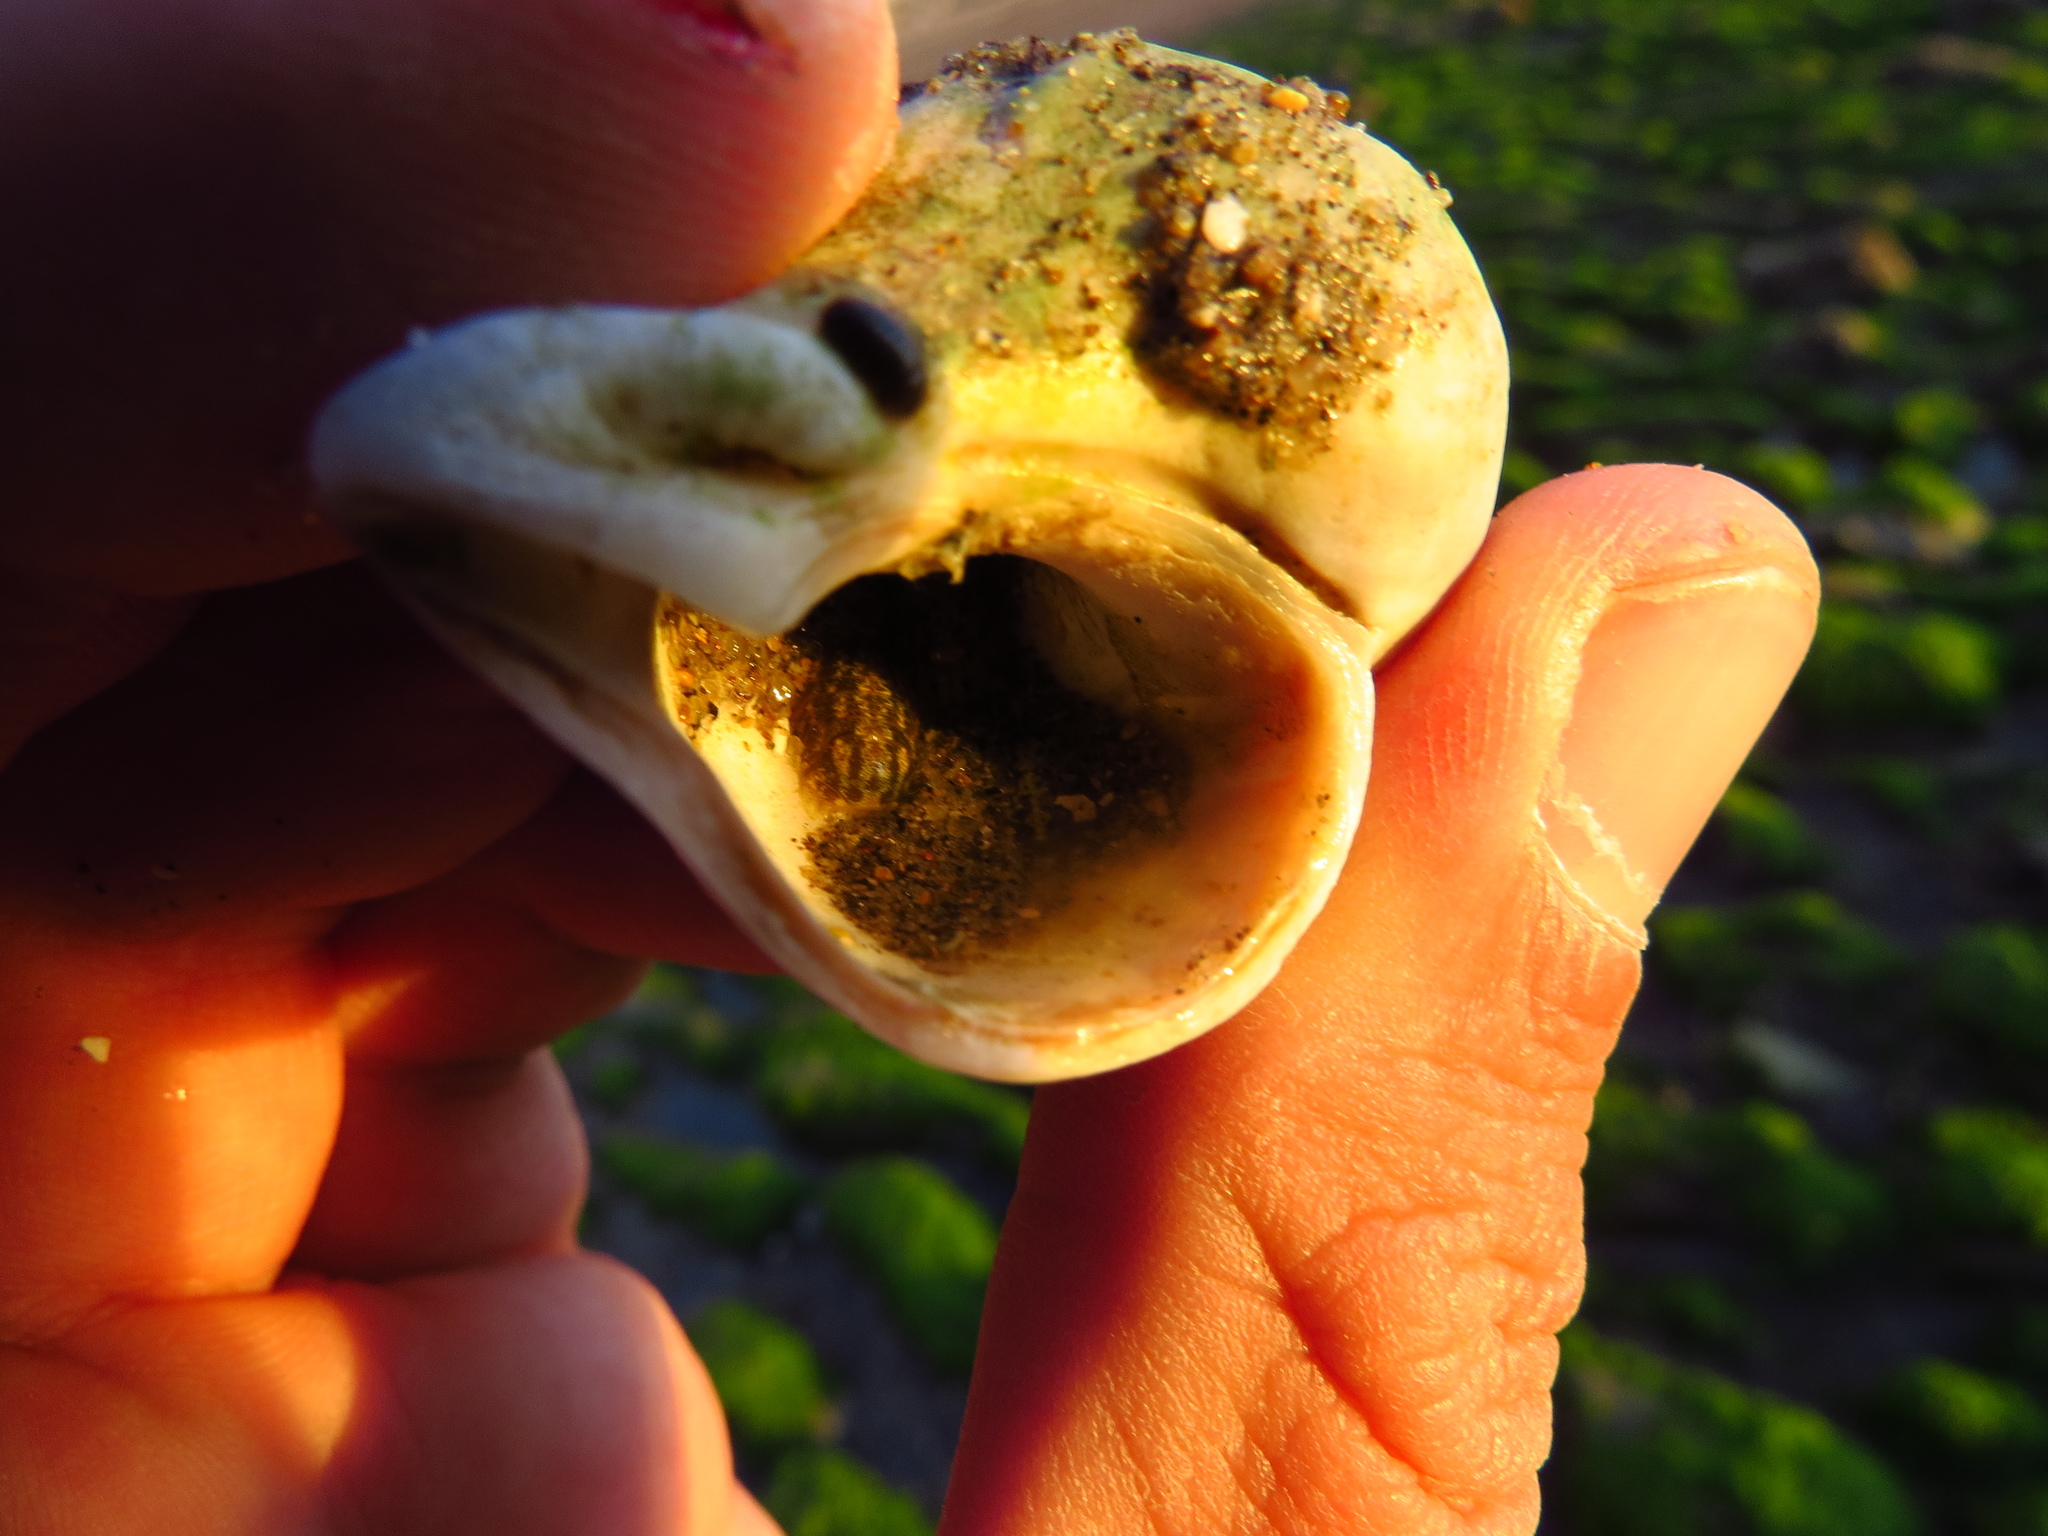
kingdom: Animalia
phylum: Mollusca
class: Gastropoda
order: Neogastropoda
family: Muricidae
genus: Trophon
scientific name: Trophon geversianus
